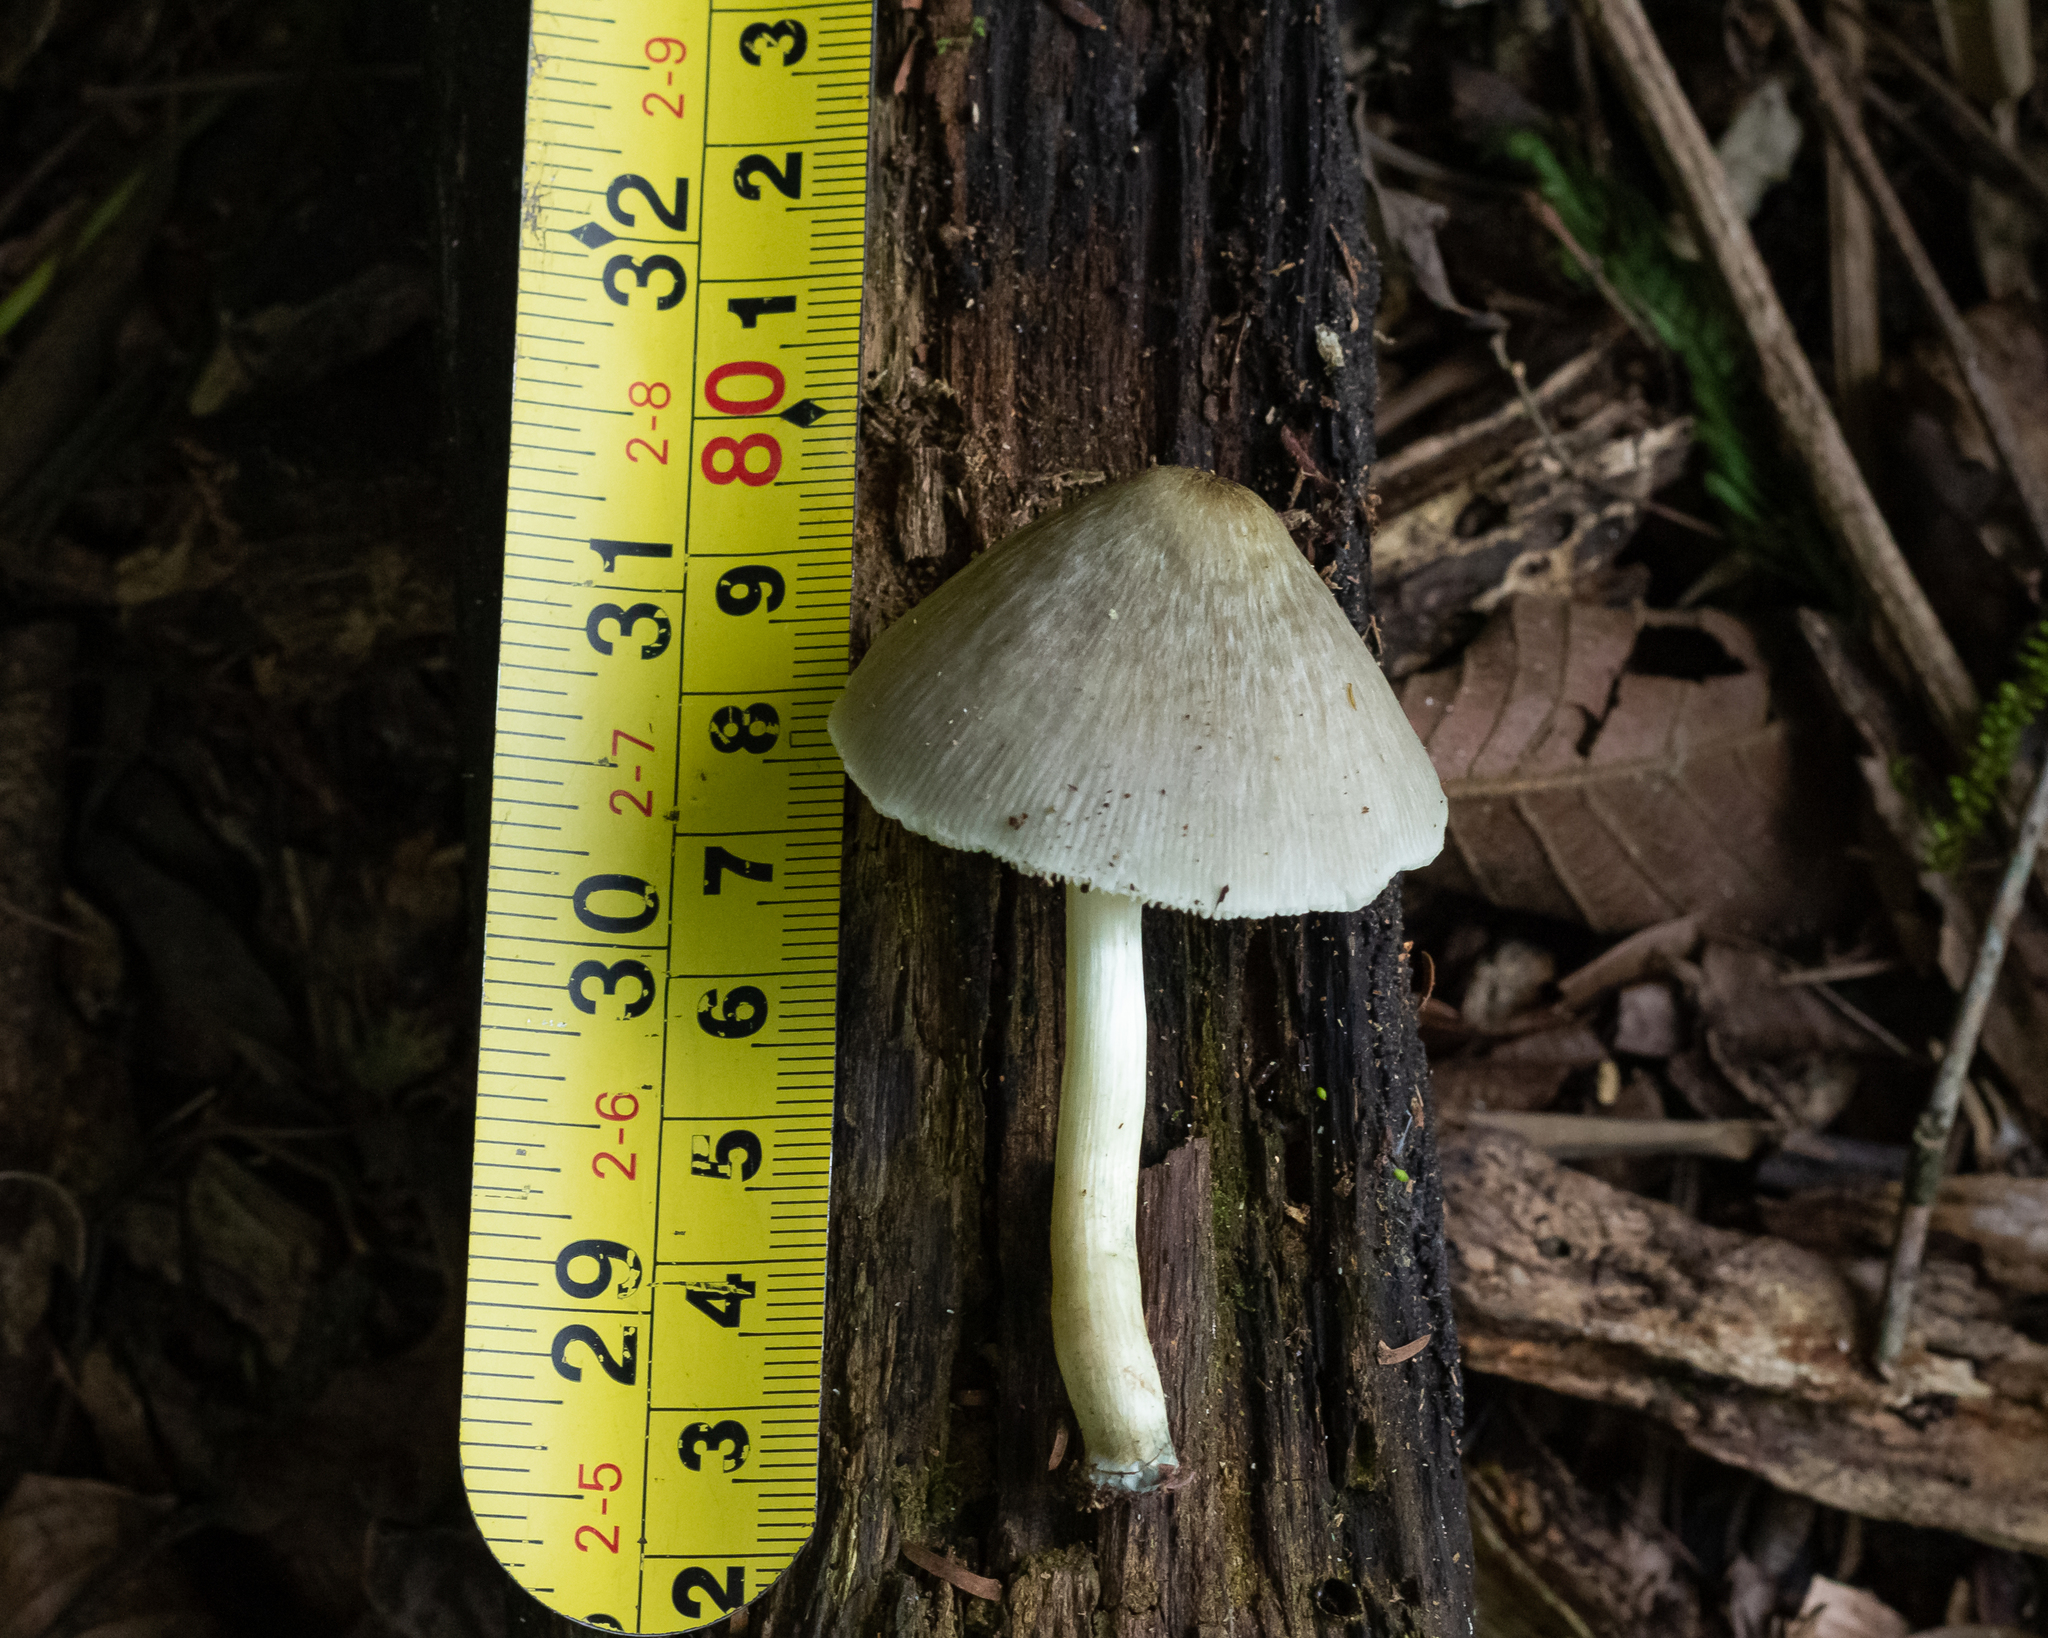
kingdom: Fungi
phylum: Basidiomycota
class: Agaricomycetes
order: Agaricales
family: Pluteaceae
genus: Pluteus
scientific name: Pluteus longistriatus
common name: Pleated pluteus
